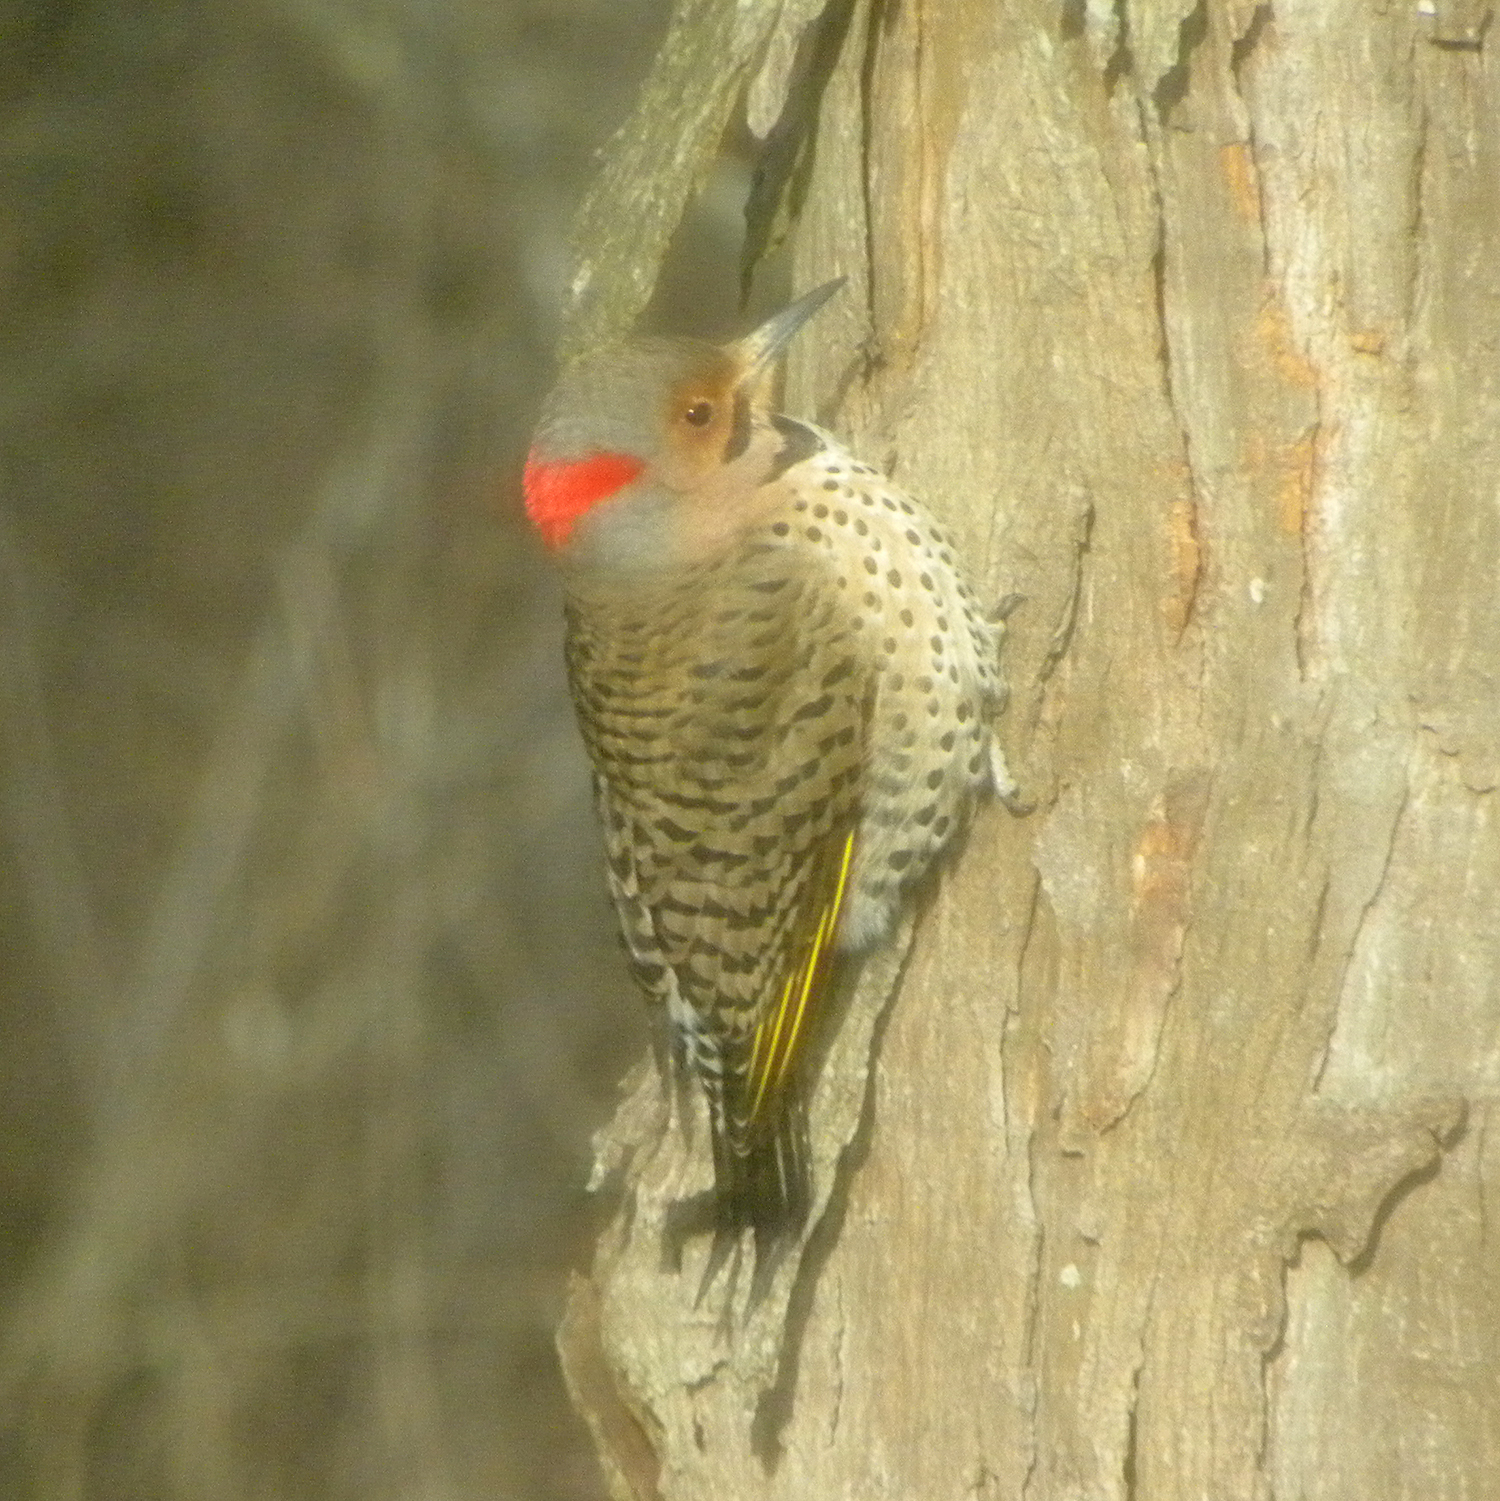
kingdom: Animalia
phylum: Chordata
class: Aves
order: Piciformes
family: Picidae
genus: Colaptes
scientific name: Colaptes auratus
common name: Northern flicker
